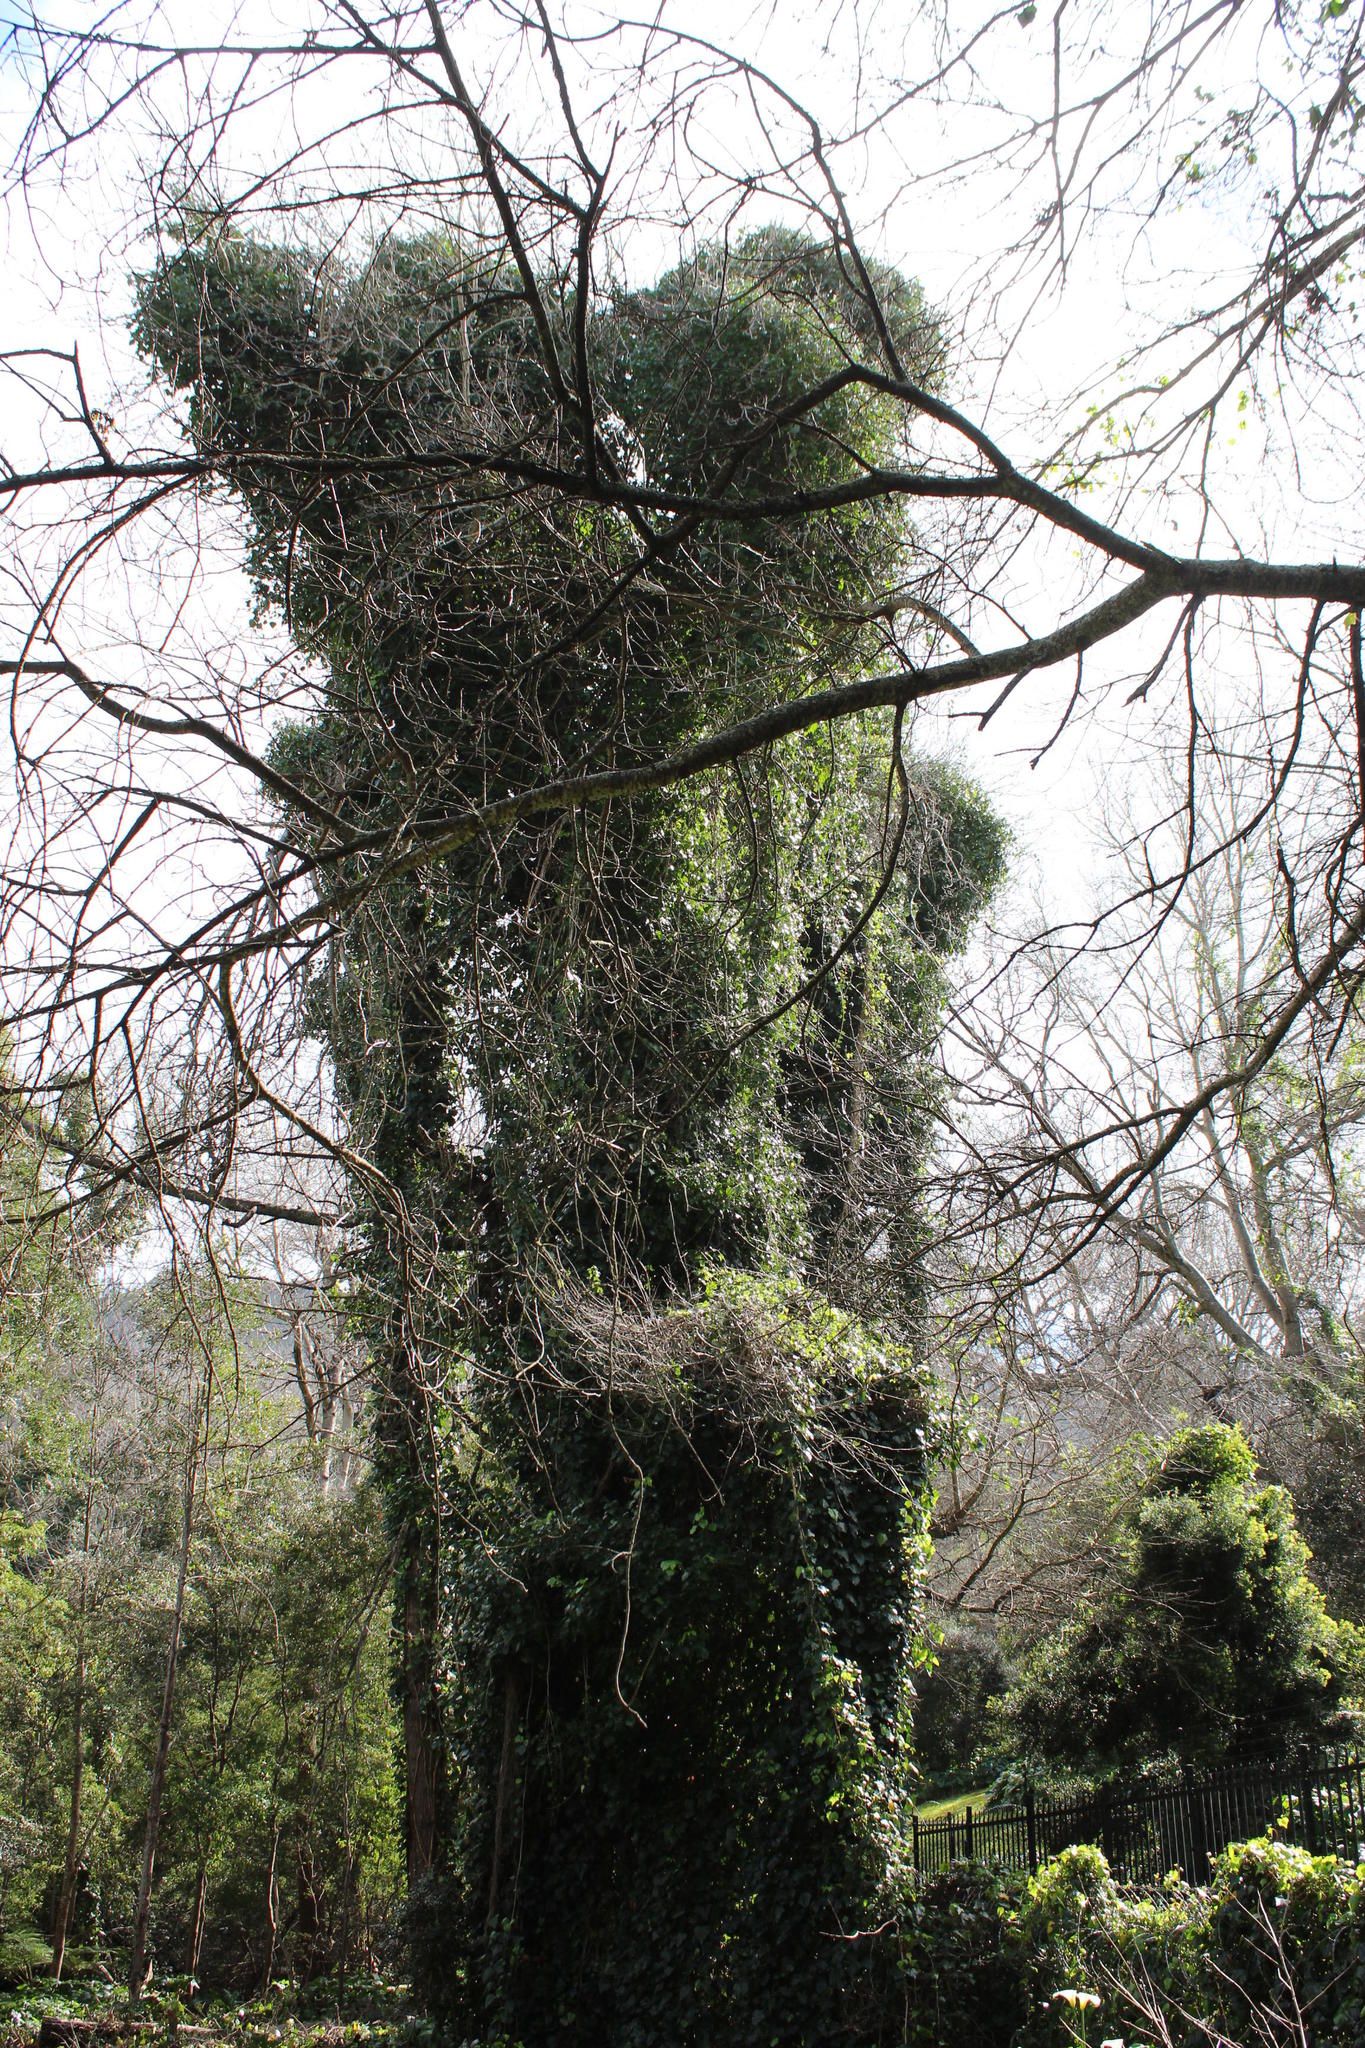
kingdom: Plantae
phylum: Tracheophyta
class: Magnoliopsida
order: Apiales
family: Araliaceae
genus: Hedera
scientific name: Hedera helix
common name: Ivy
